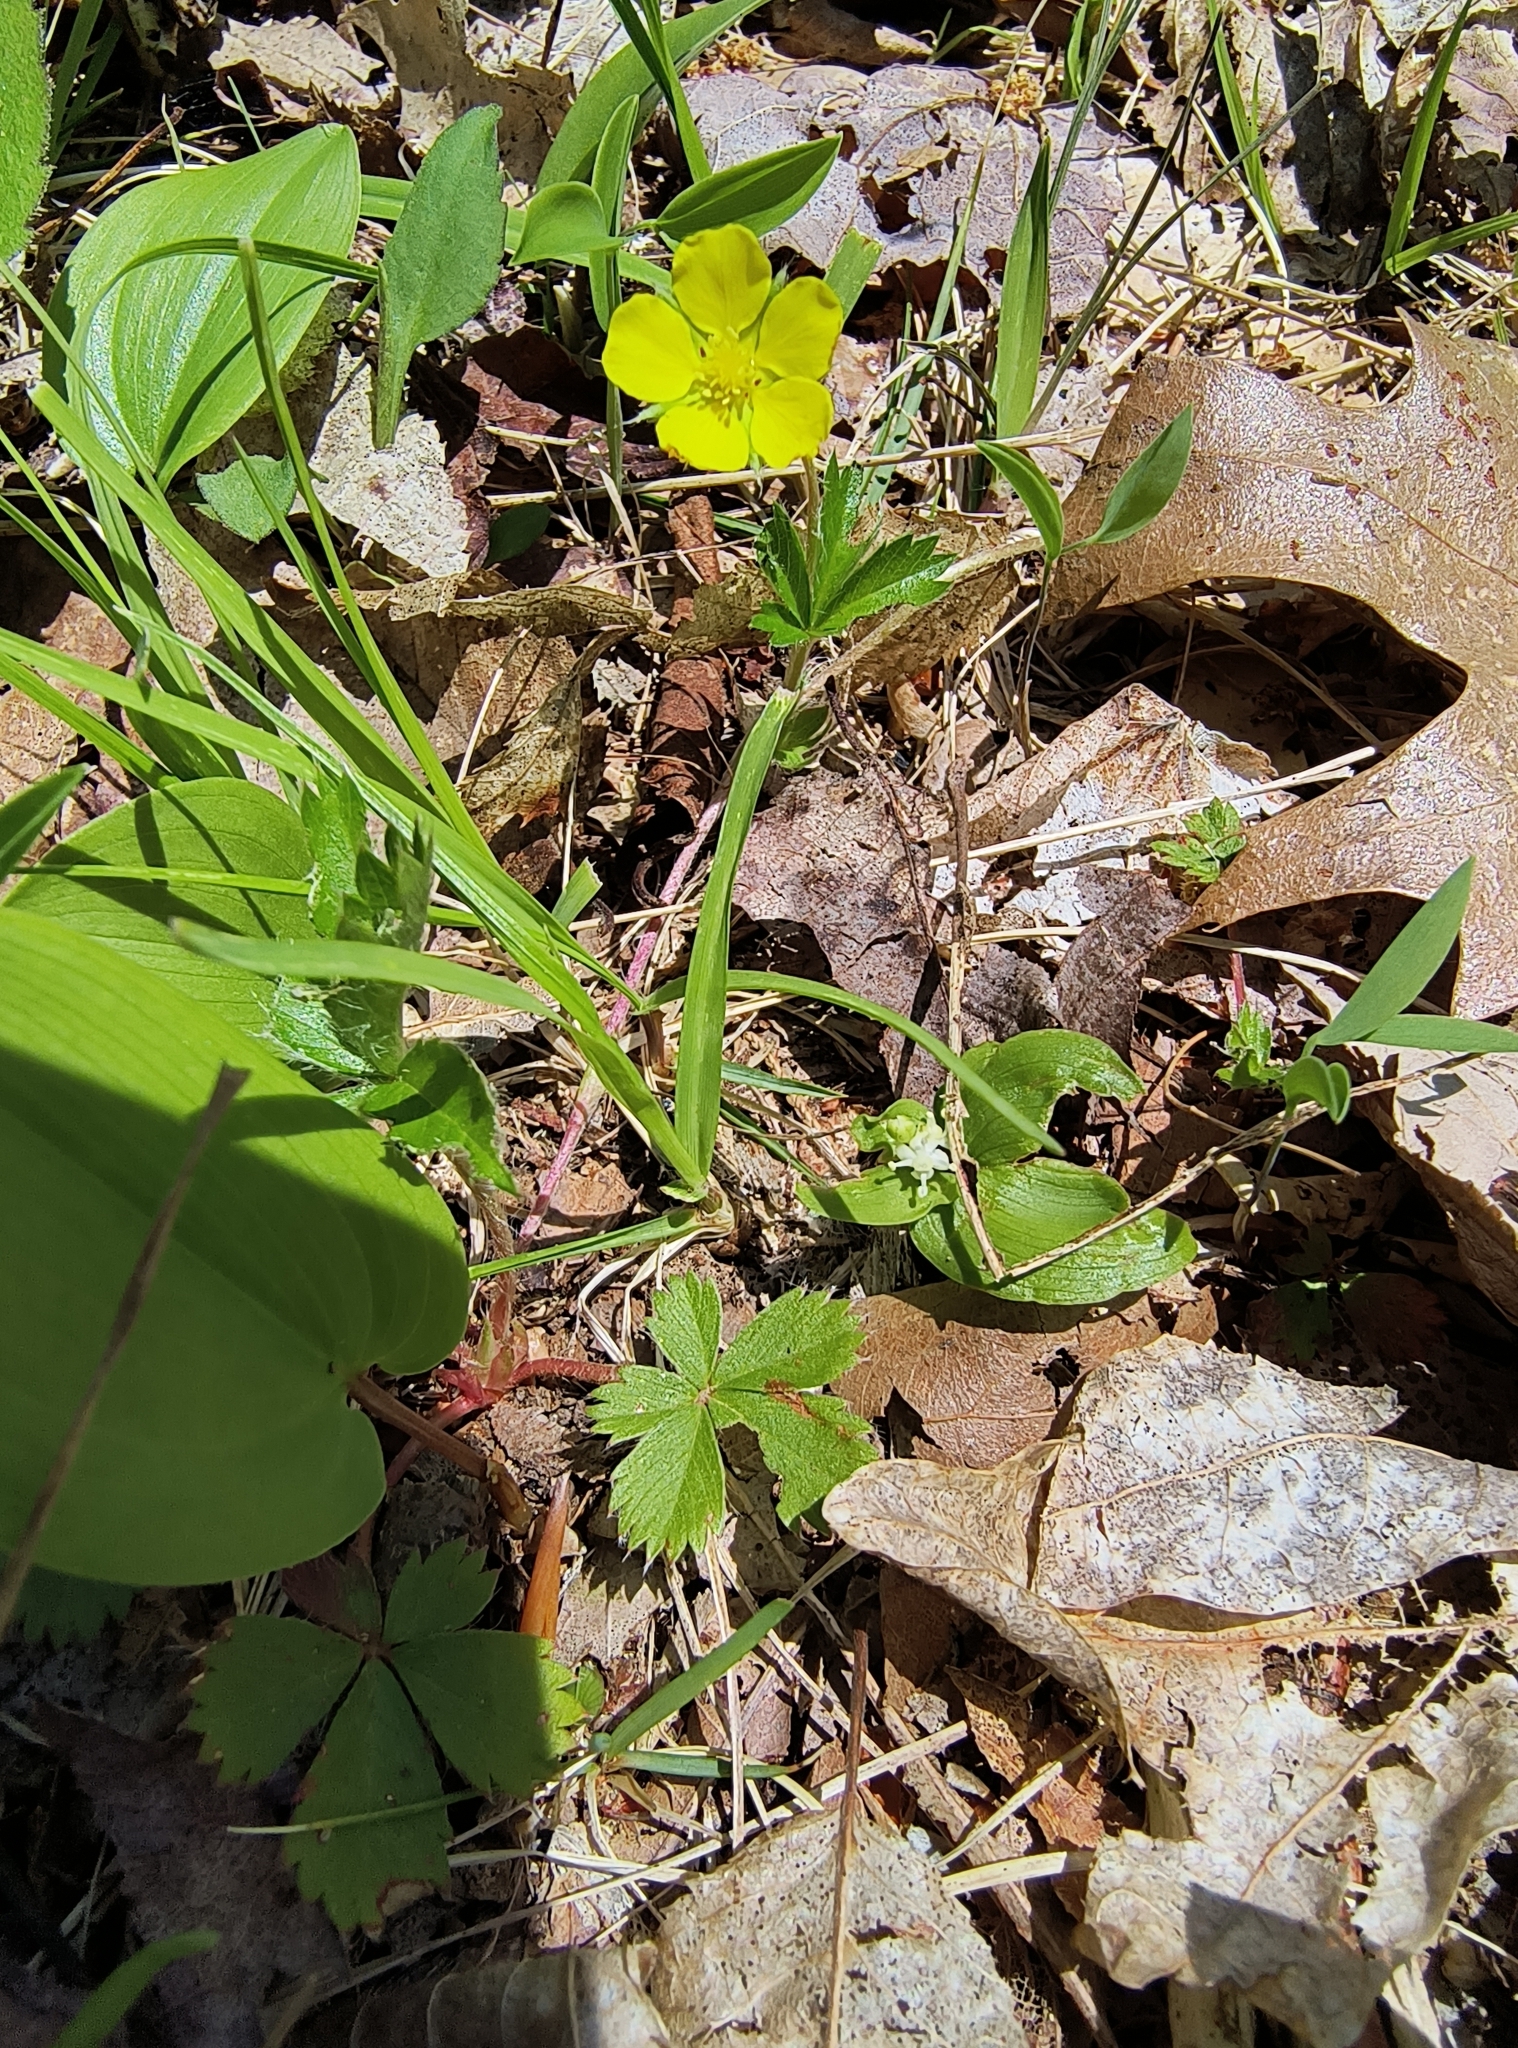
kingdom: Plantae
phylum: Tracheophyta
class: Magnoliopsida
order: Rosales
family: Rosaceae
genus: Potentilla
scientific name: Potentilla canadensis
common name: Canada cinquefoil
